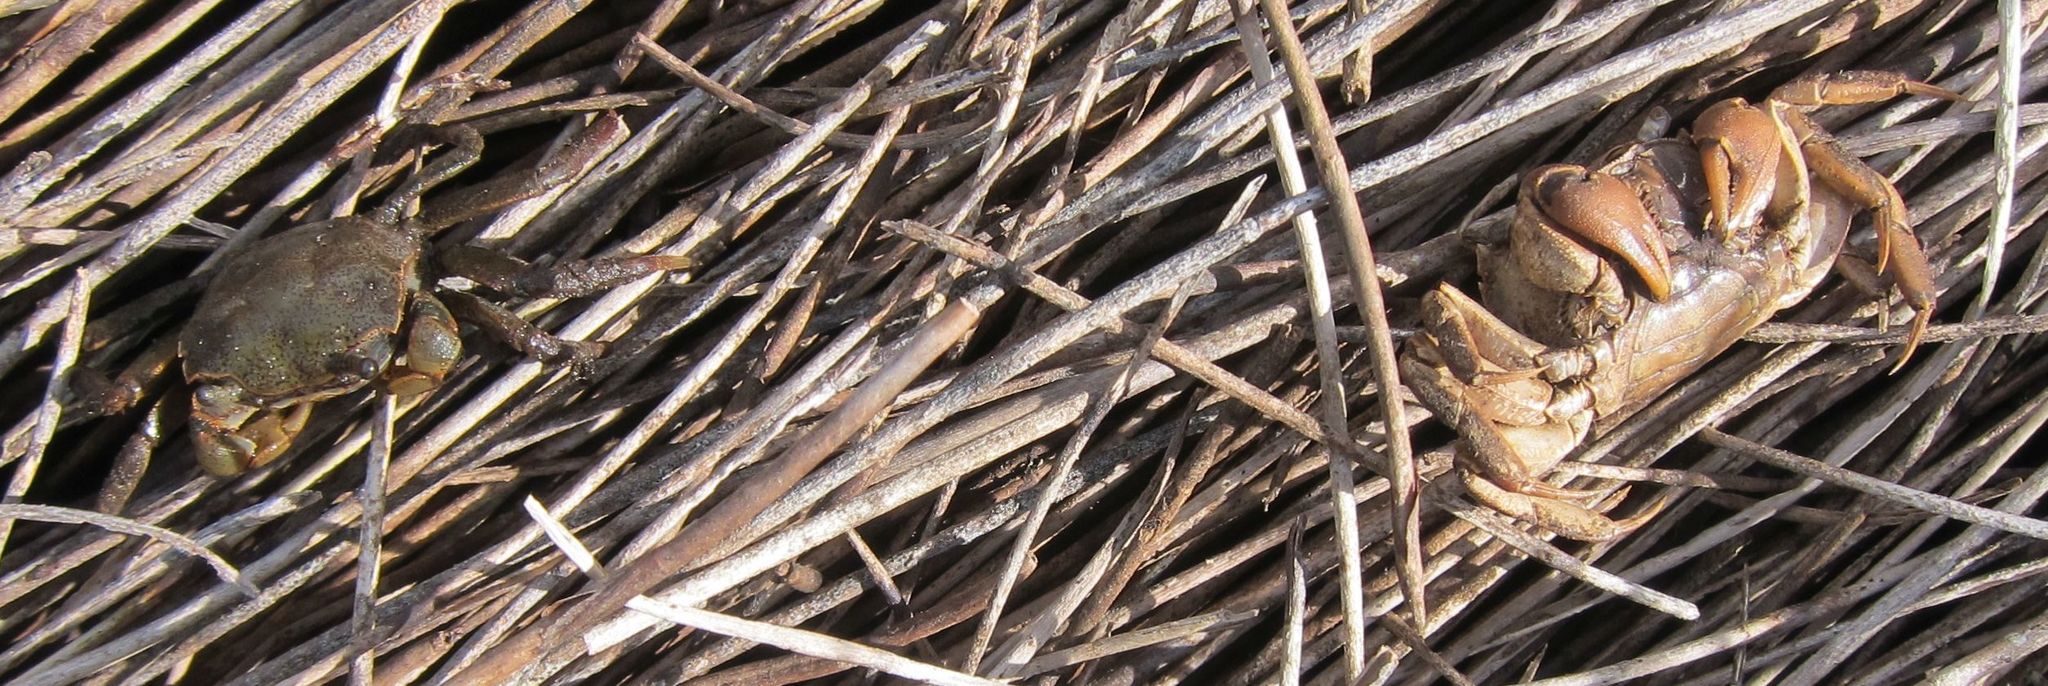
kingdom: Animalia
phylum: Arthropoda
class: Malacostraca
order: Decapoda
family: Varunidae
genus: Austrohelice
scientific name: Austrohelice crassa
